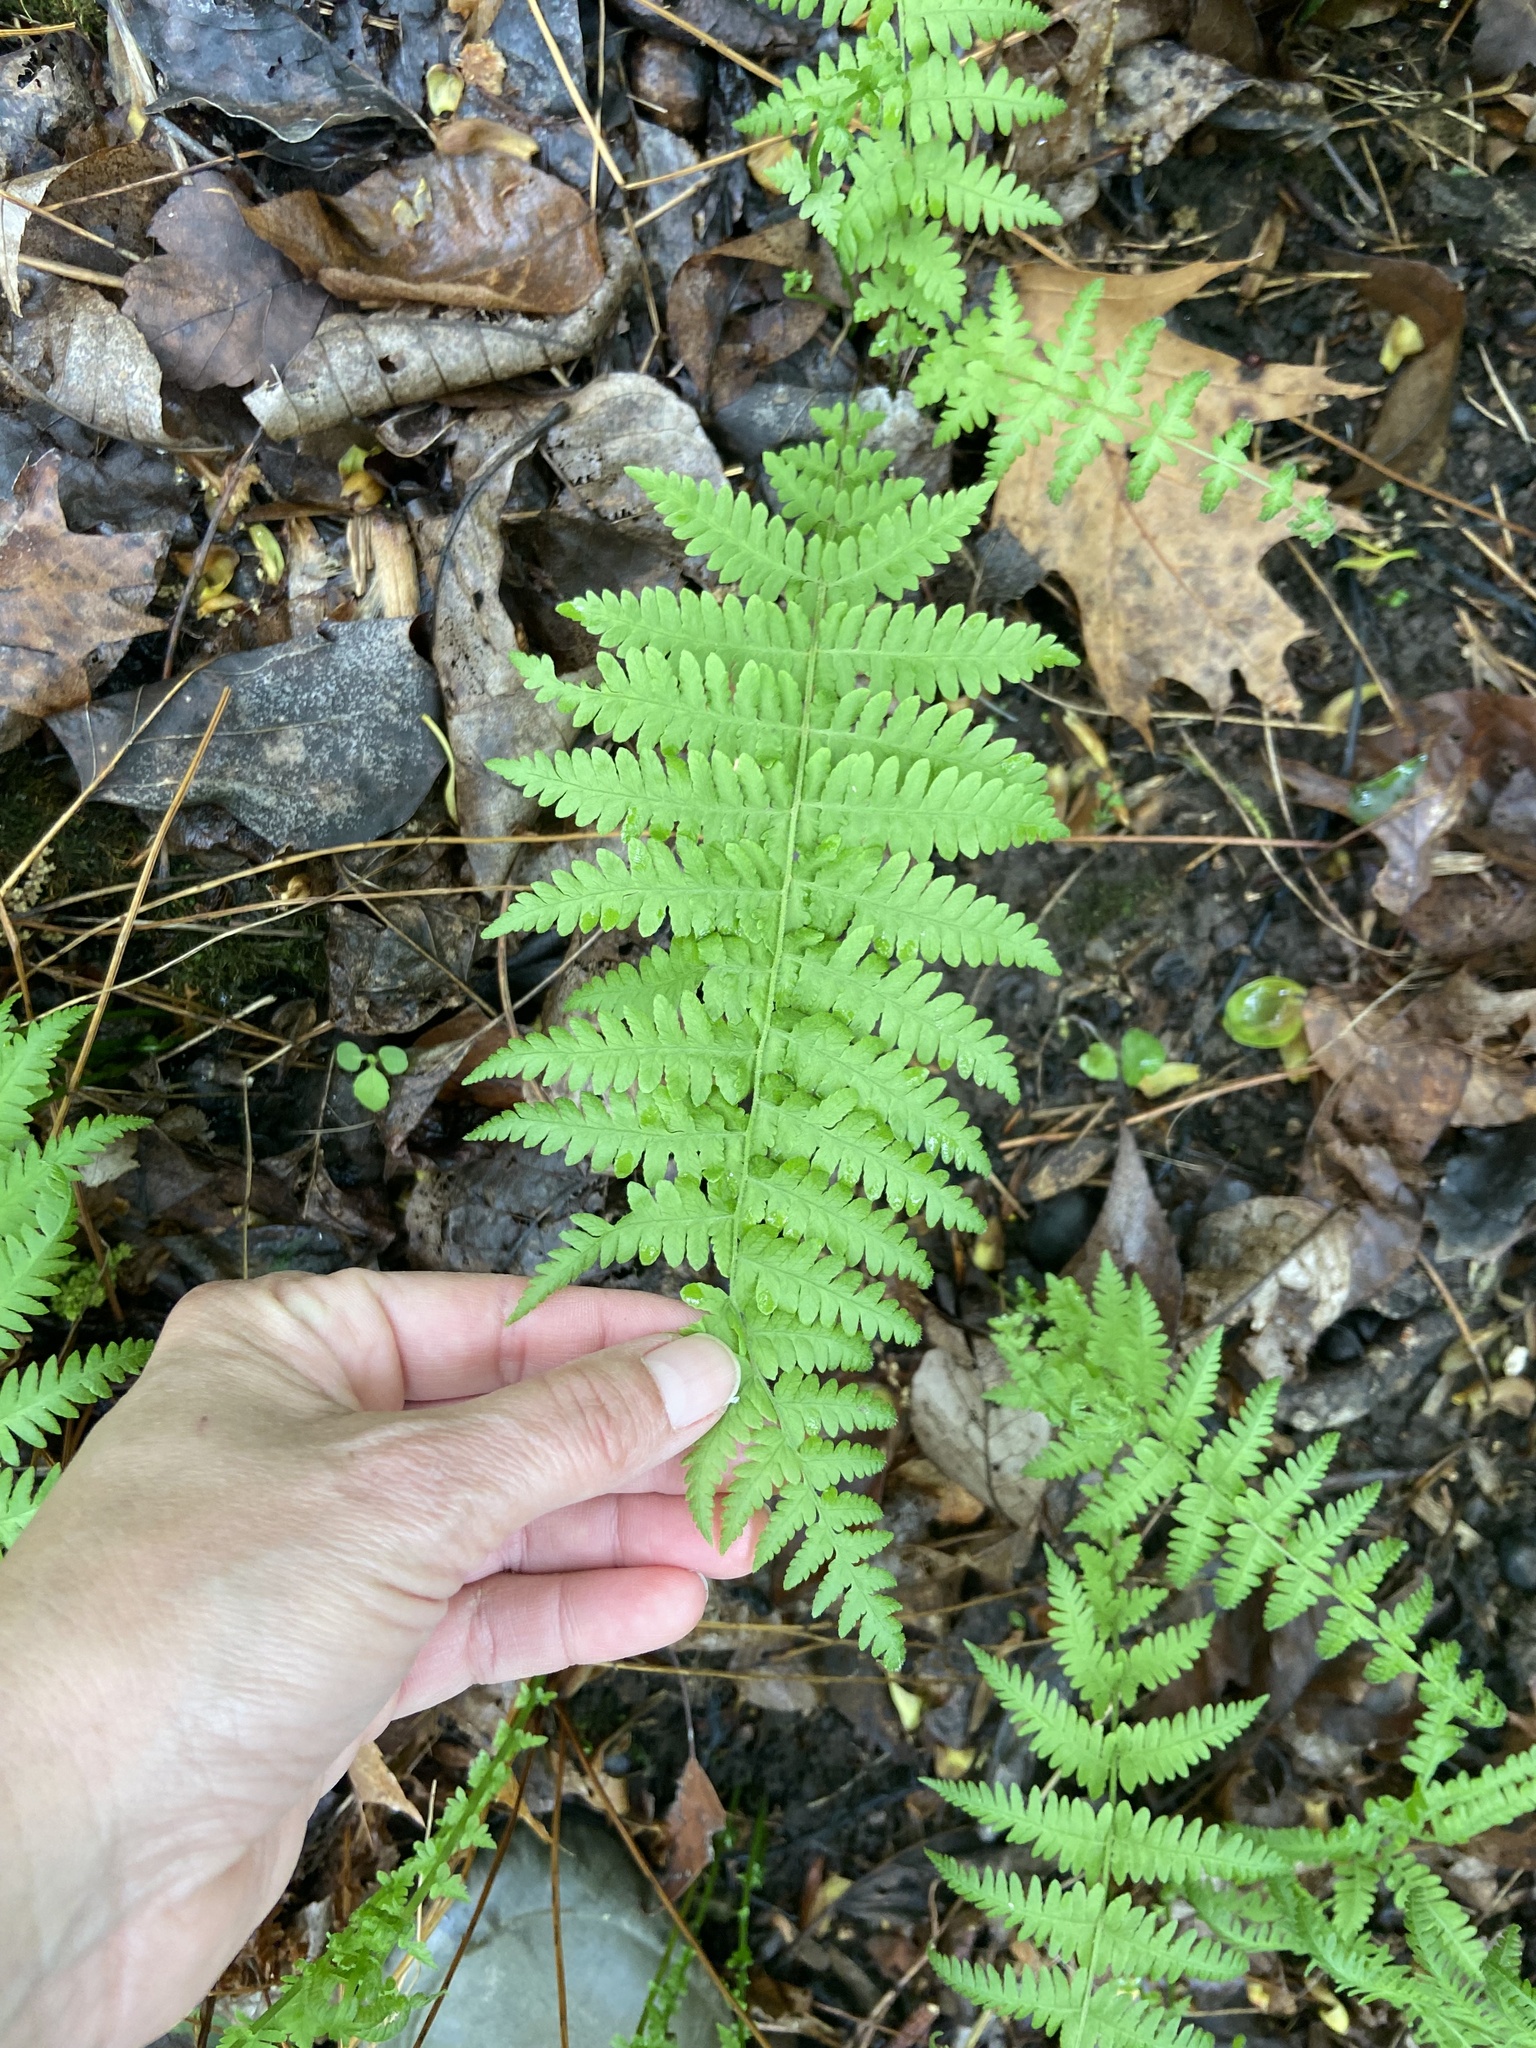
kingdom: Plantae
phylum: Tracheophyta
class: Polypodiopsida
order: Polypodiales
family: Thelypteridaceae
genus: Amauropelta
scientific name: Amauropelta noveboracensis
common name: New york fern
